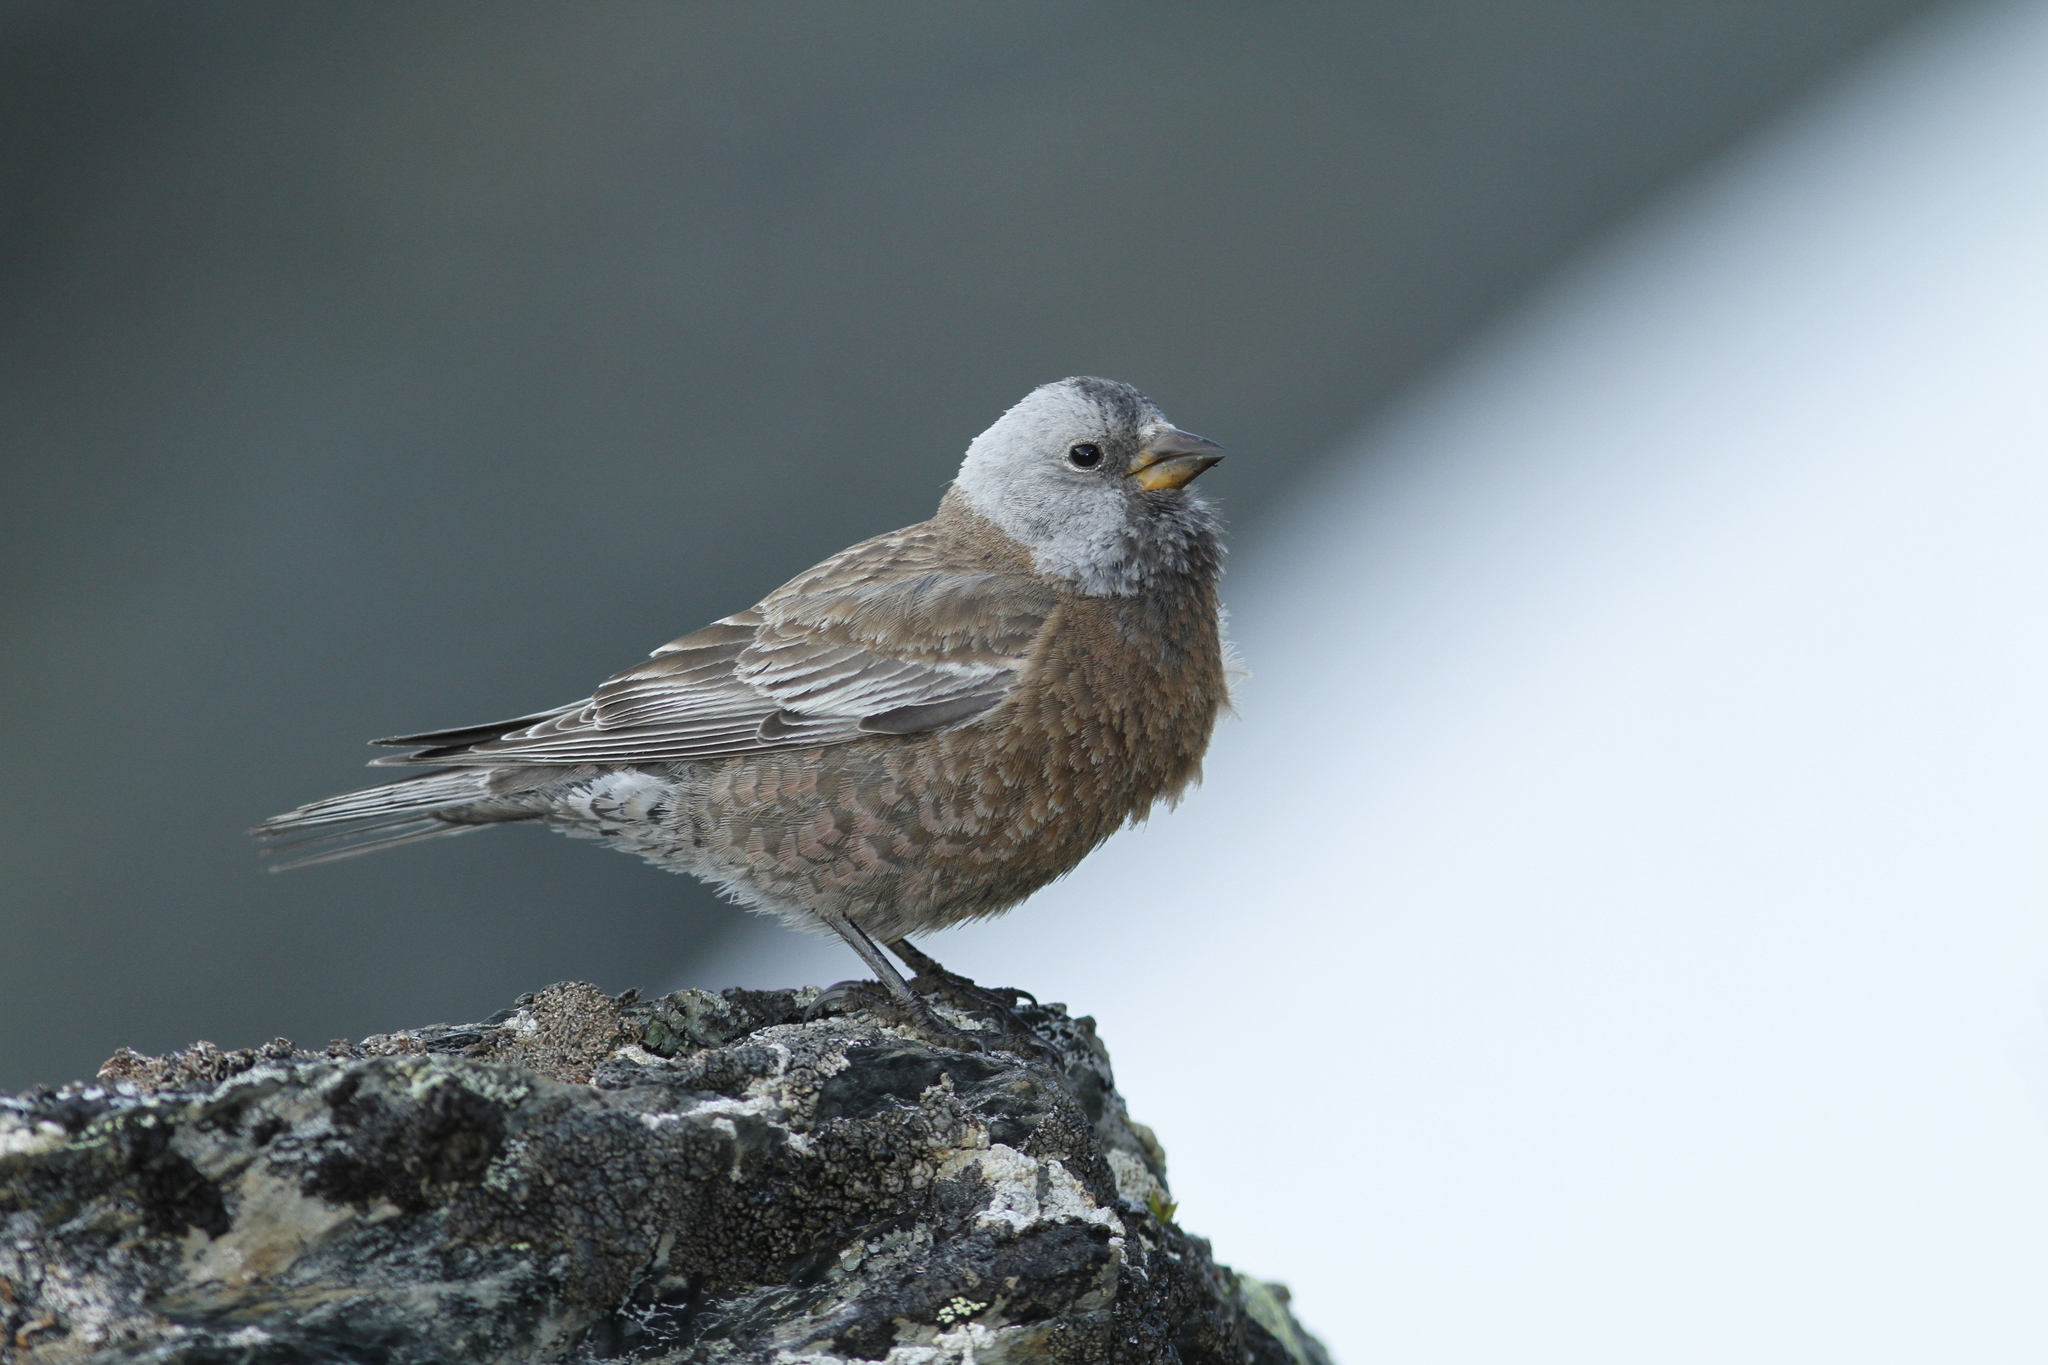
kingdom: Animalia
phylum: Chordata
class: Aves
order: Passeriformes
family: Fringillidae
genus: Leucosticte
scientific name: Leucosticte tephrocotis
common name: Gray-crowned rosy-finch
